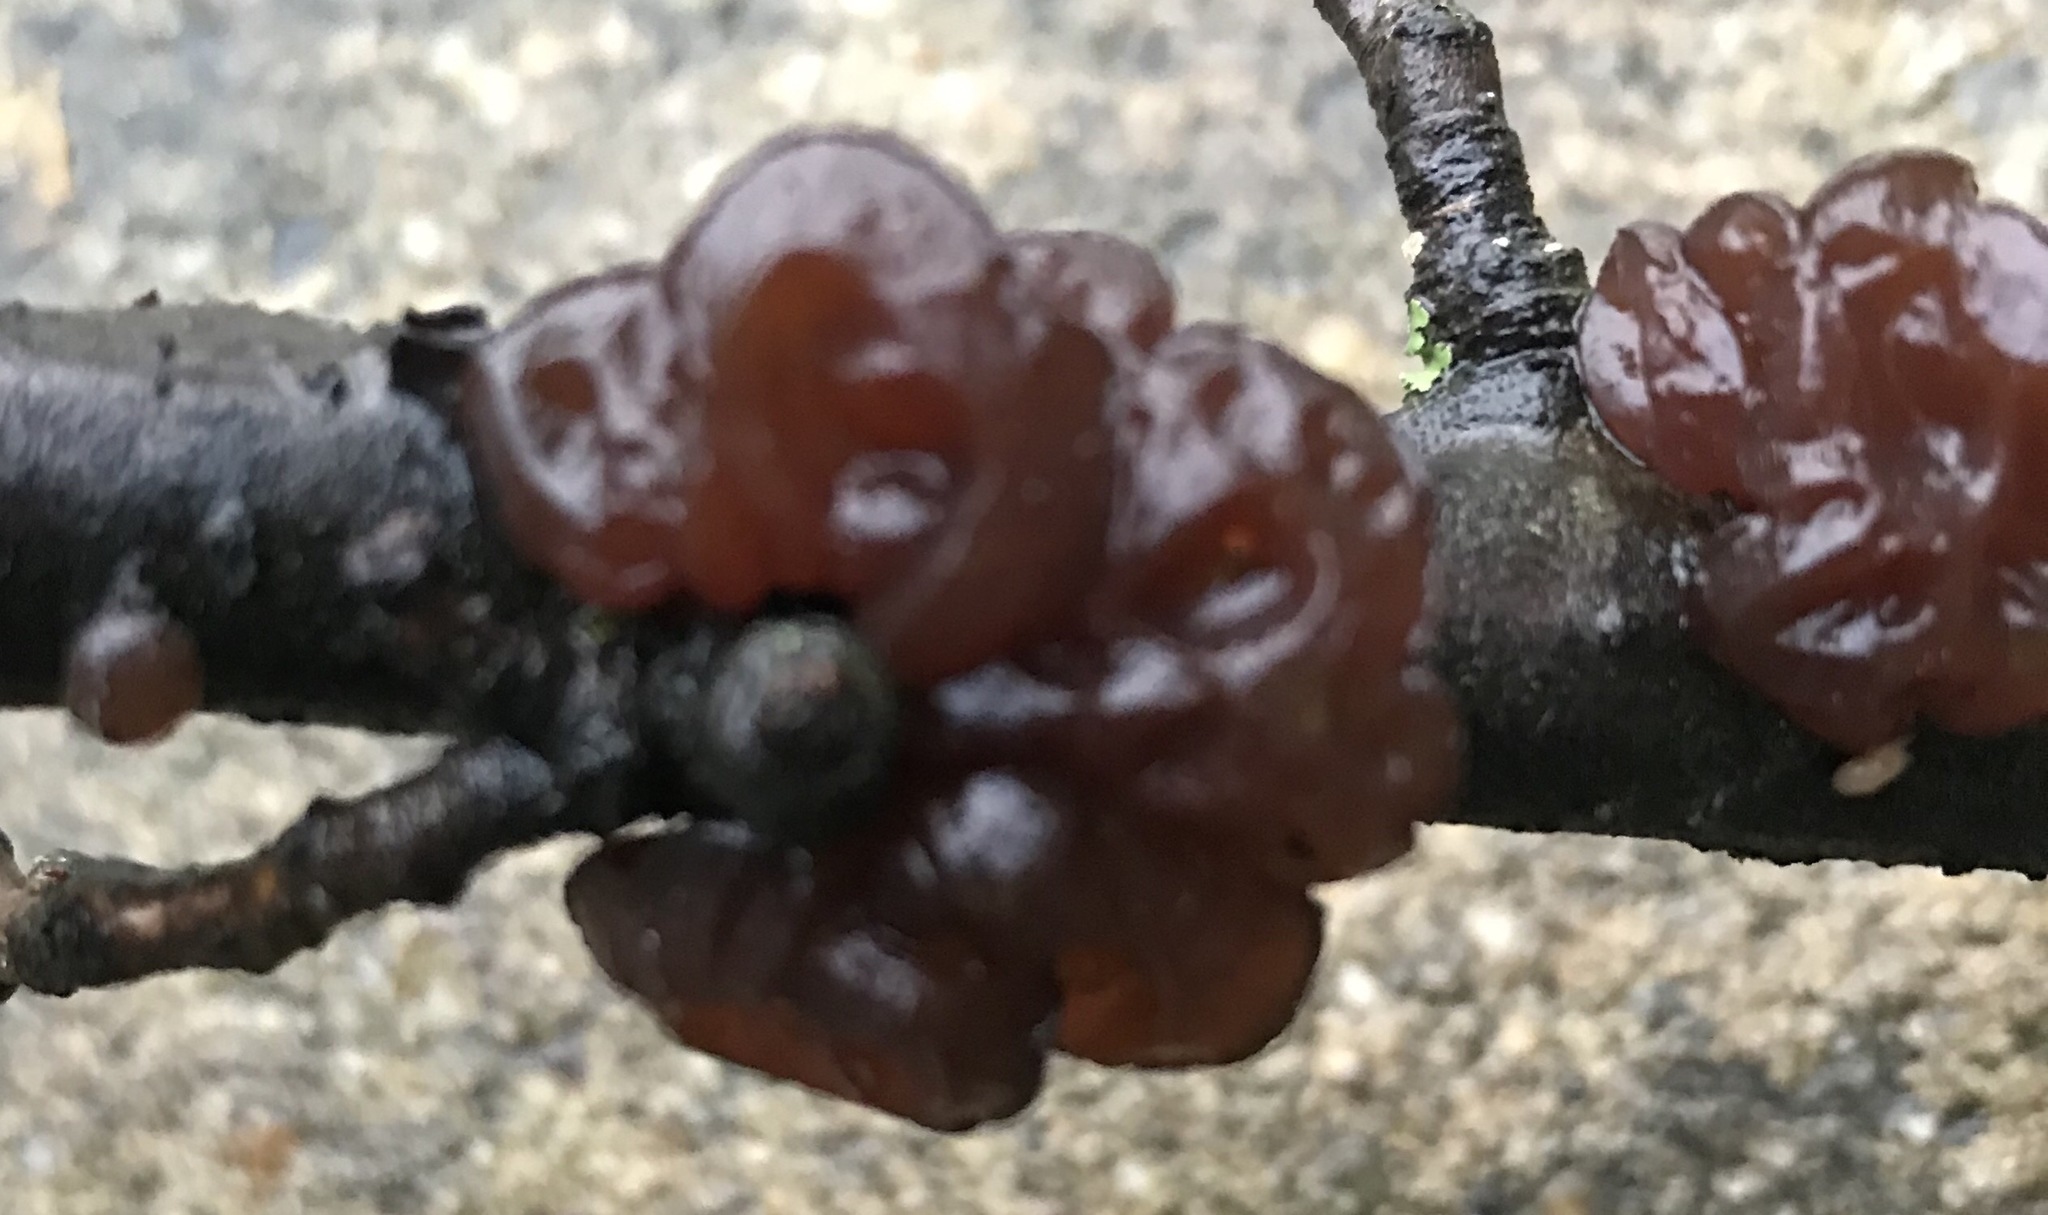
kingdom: Fungi
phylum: Basidiomycota
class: Agaricomycetes
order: Auriculariales
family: Auriculariaceae
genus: Exidia
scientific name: Exidia
